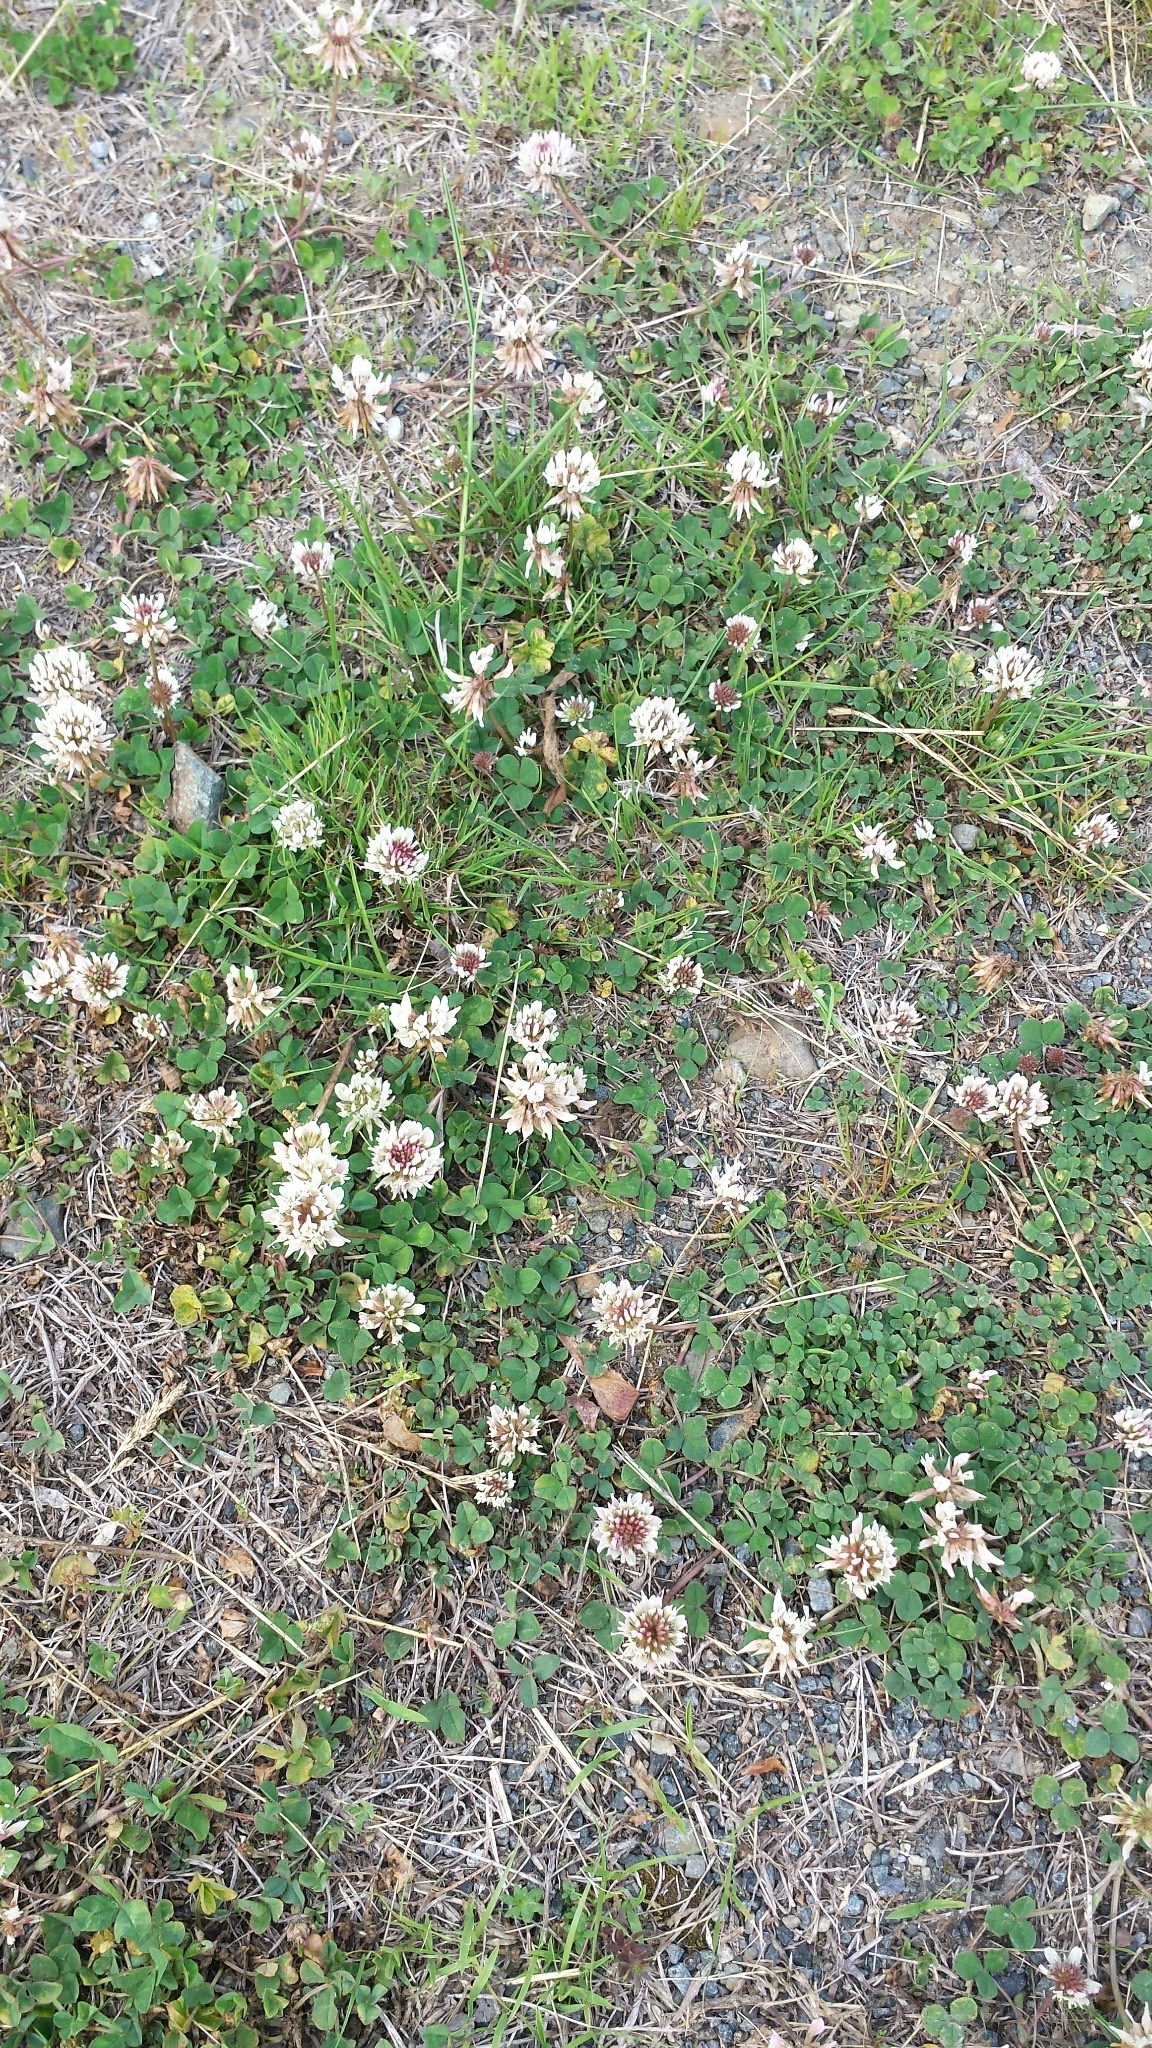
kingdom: Plantae
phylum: Tracheophyta
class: Magnoliopsida
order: Fabales
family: Fabaceae
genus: Trifolium
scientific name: Trifolium repens
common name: White clover
